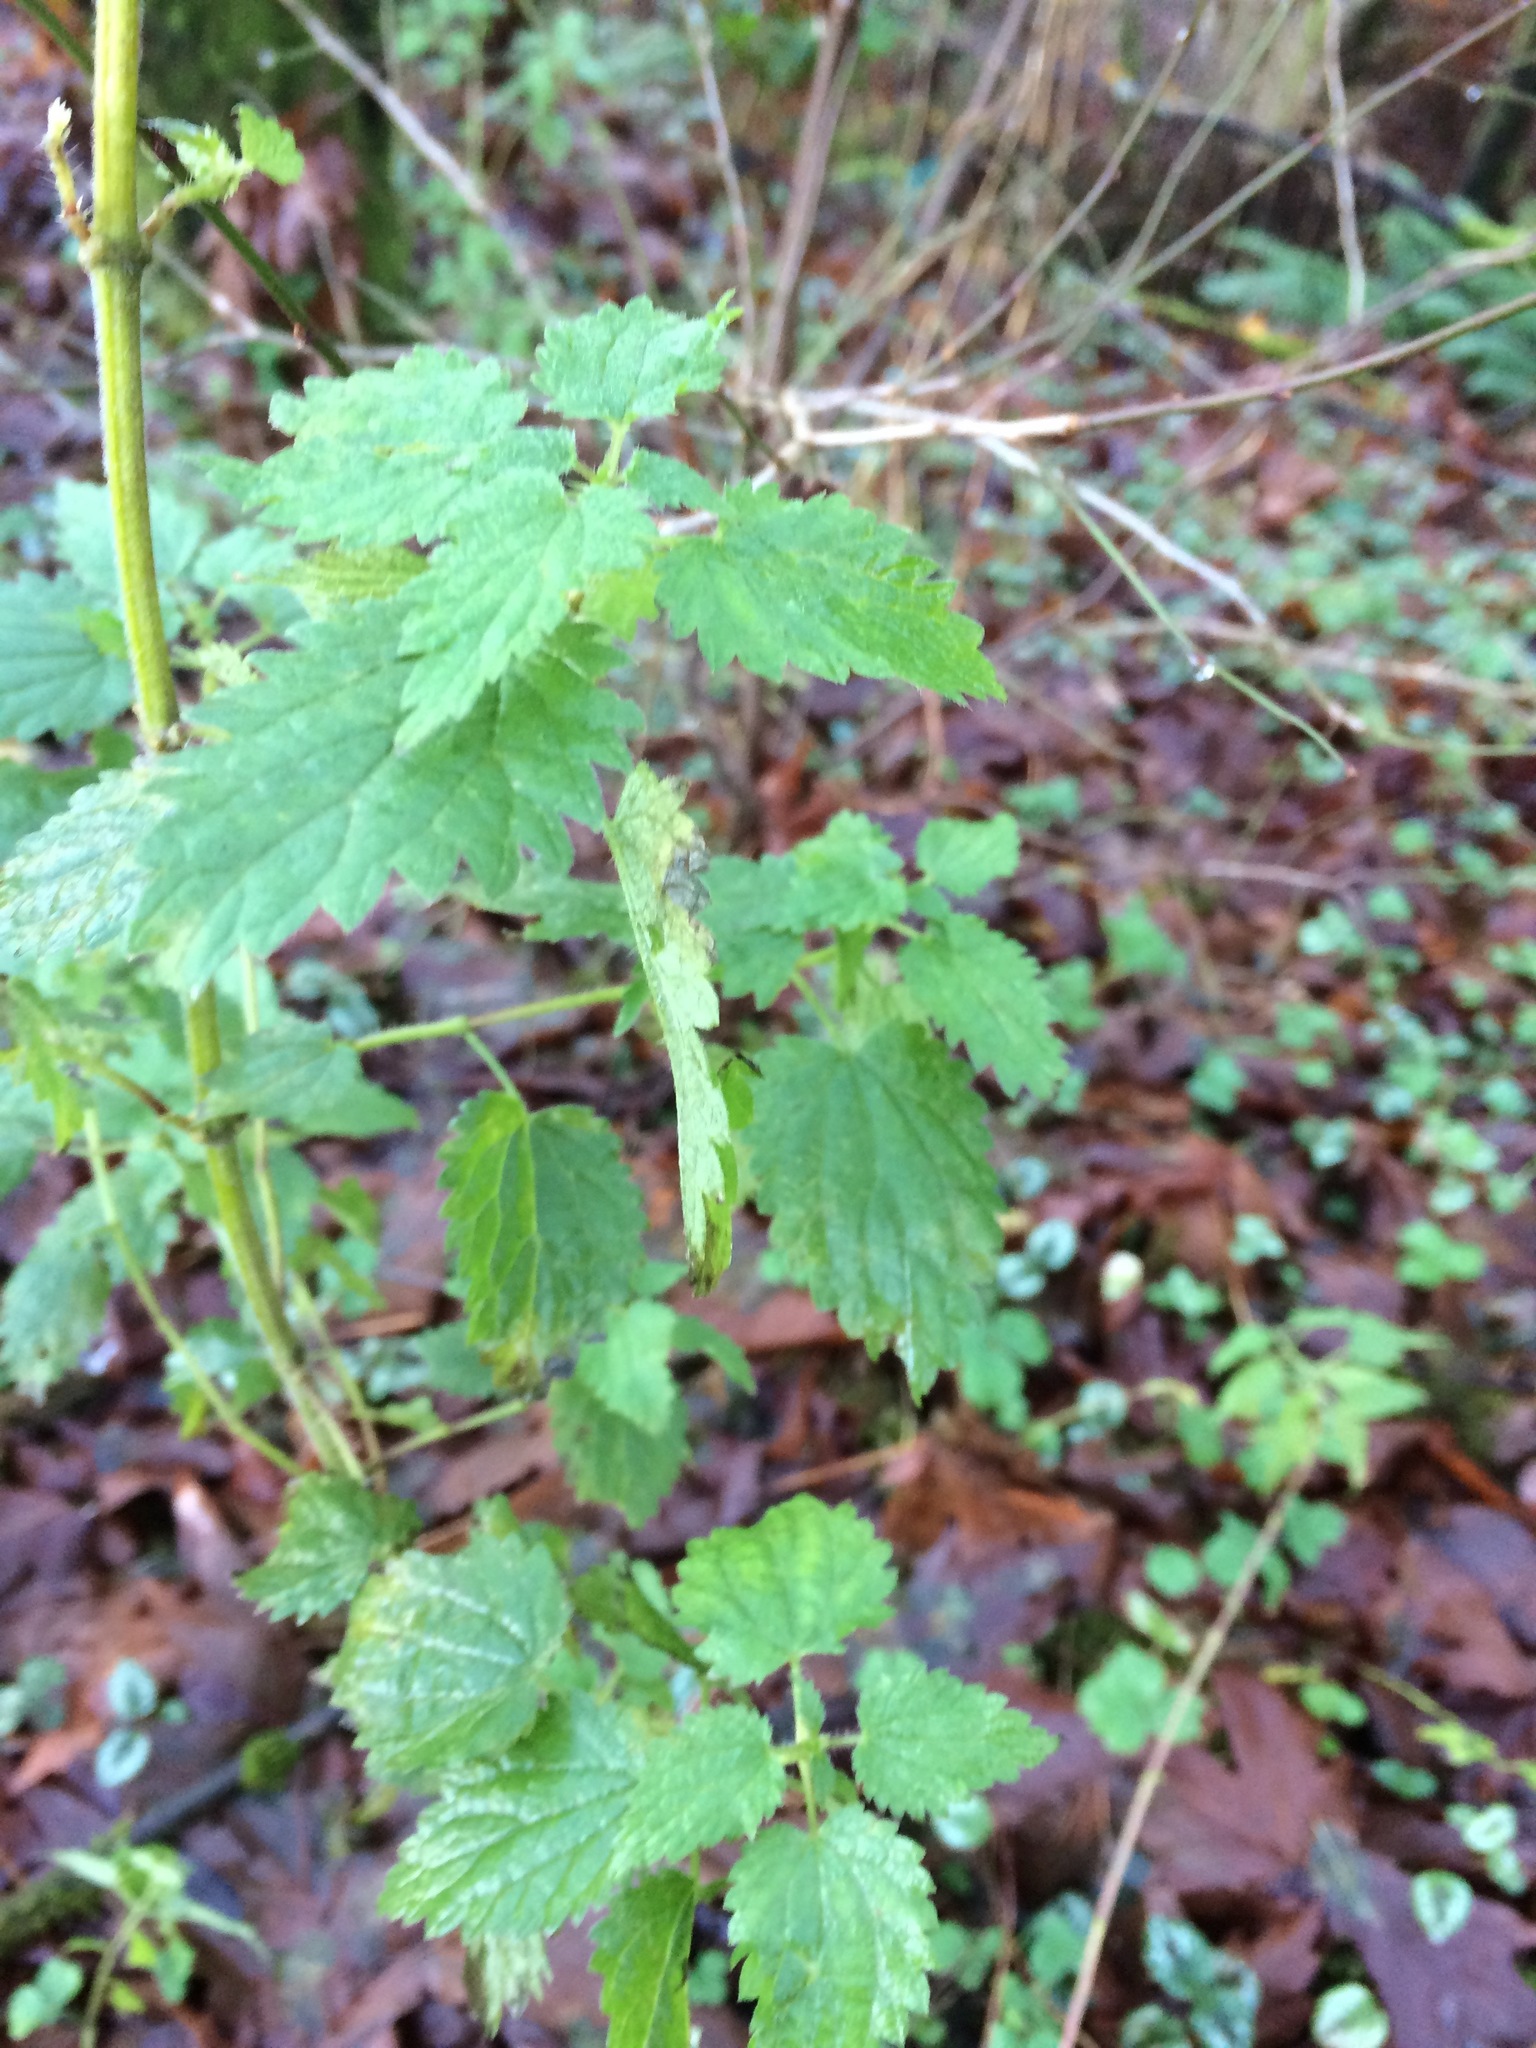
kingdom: Plantae
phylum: Tracheophyta
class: Magnoliopsida
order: Rosales
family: Urticaceae
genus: Urtica
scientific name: Urtica dioica
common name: Common nettle
